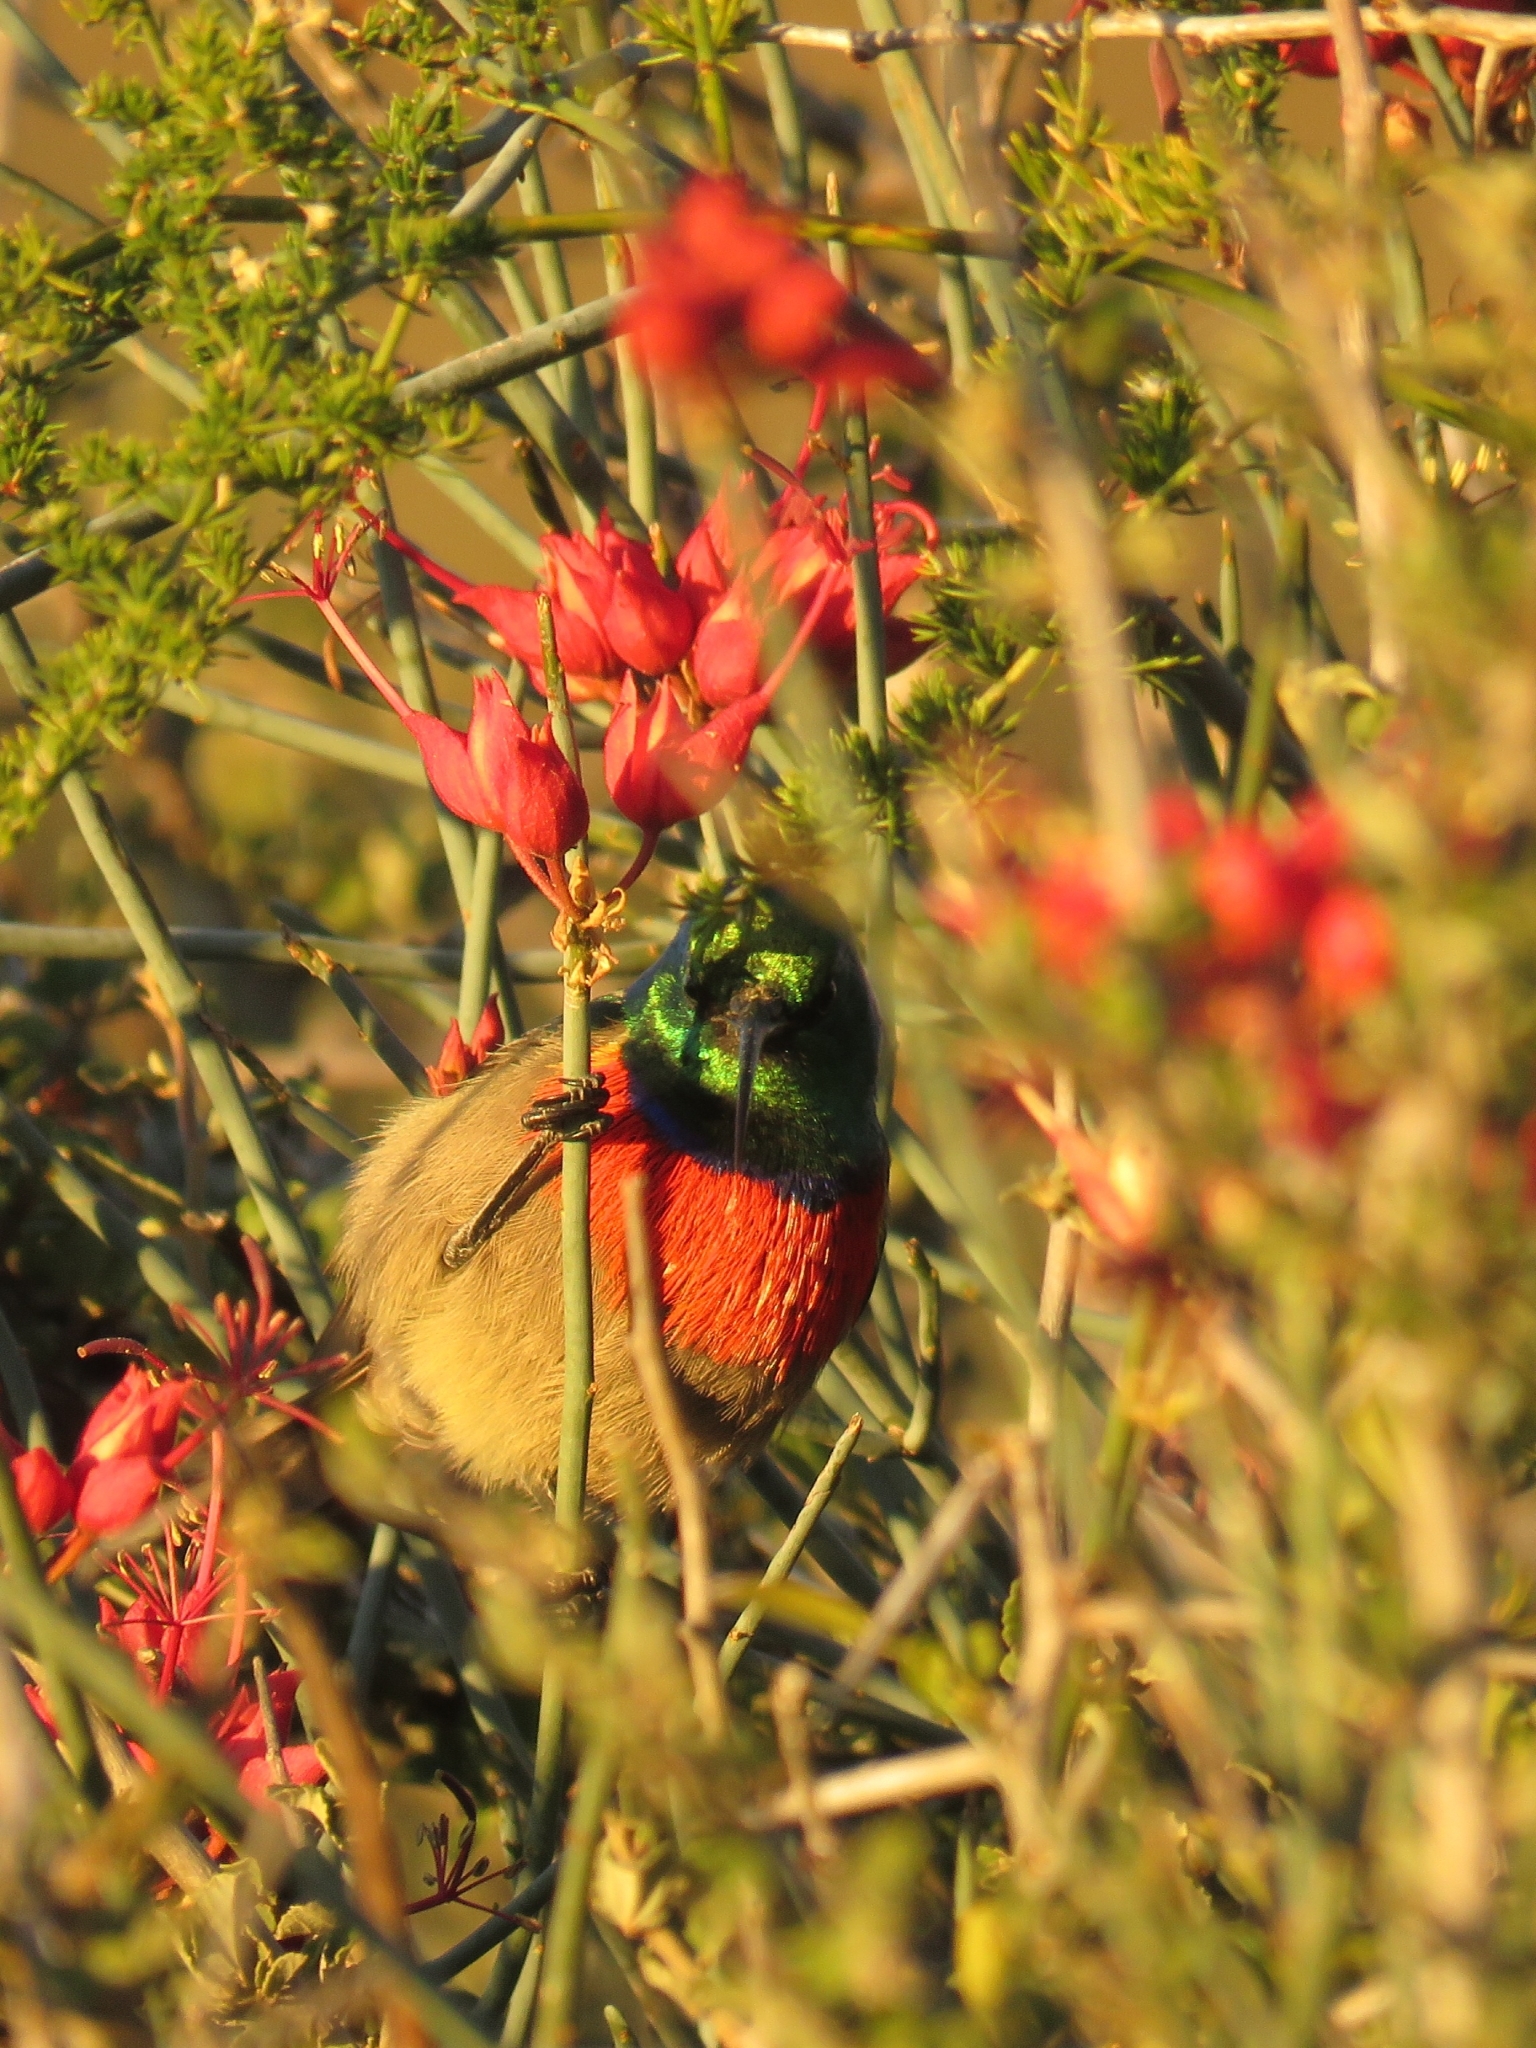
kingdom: Animalia
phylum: Chordata
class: Aves
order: Passeriformes
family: Nectariniidae
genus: Cinnyris
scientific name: Cinnyris afer
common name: Greater double-collared sunbird
